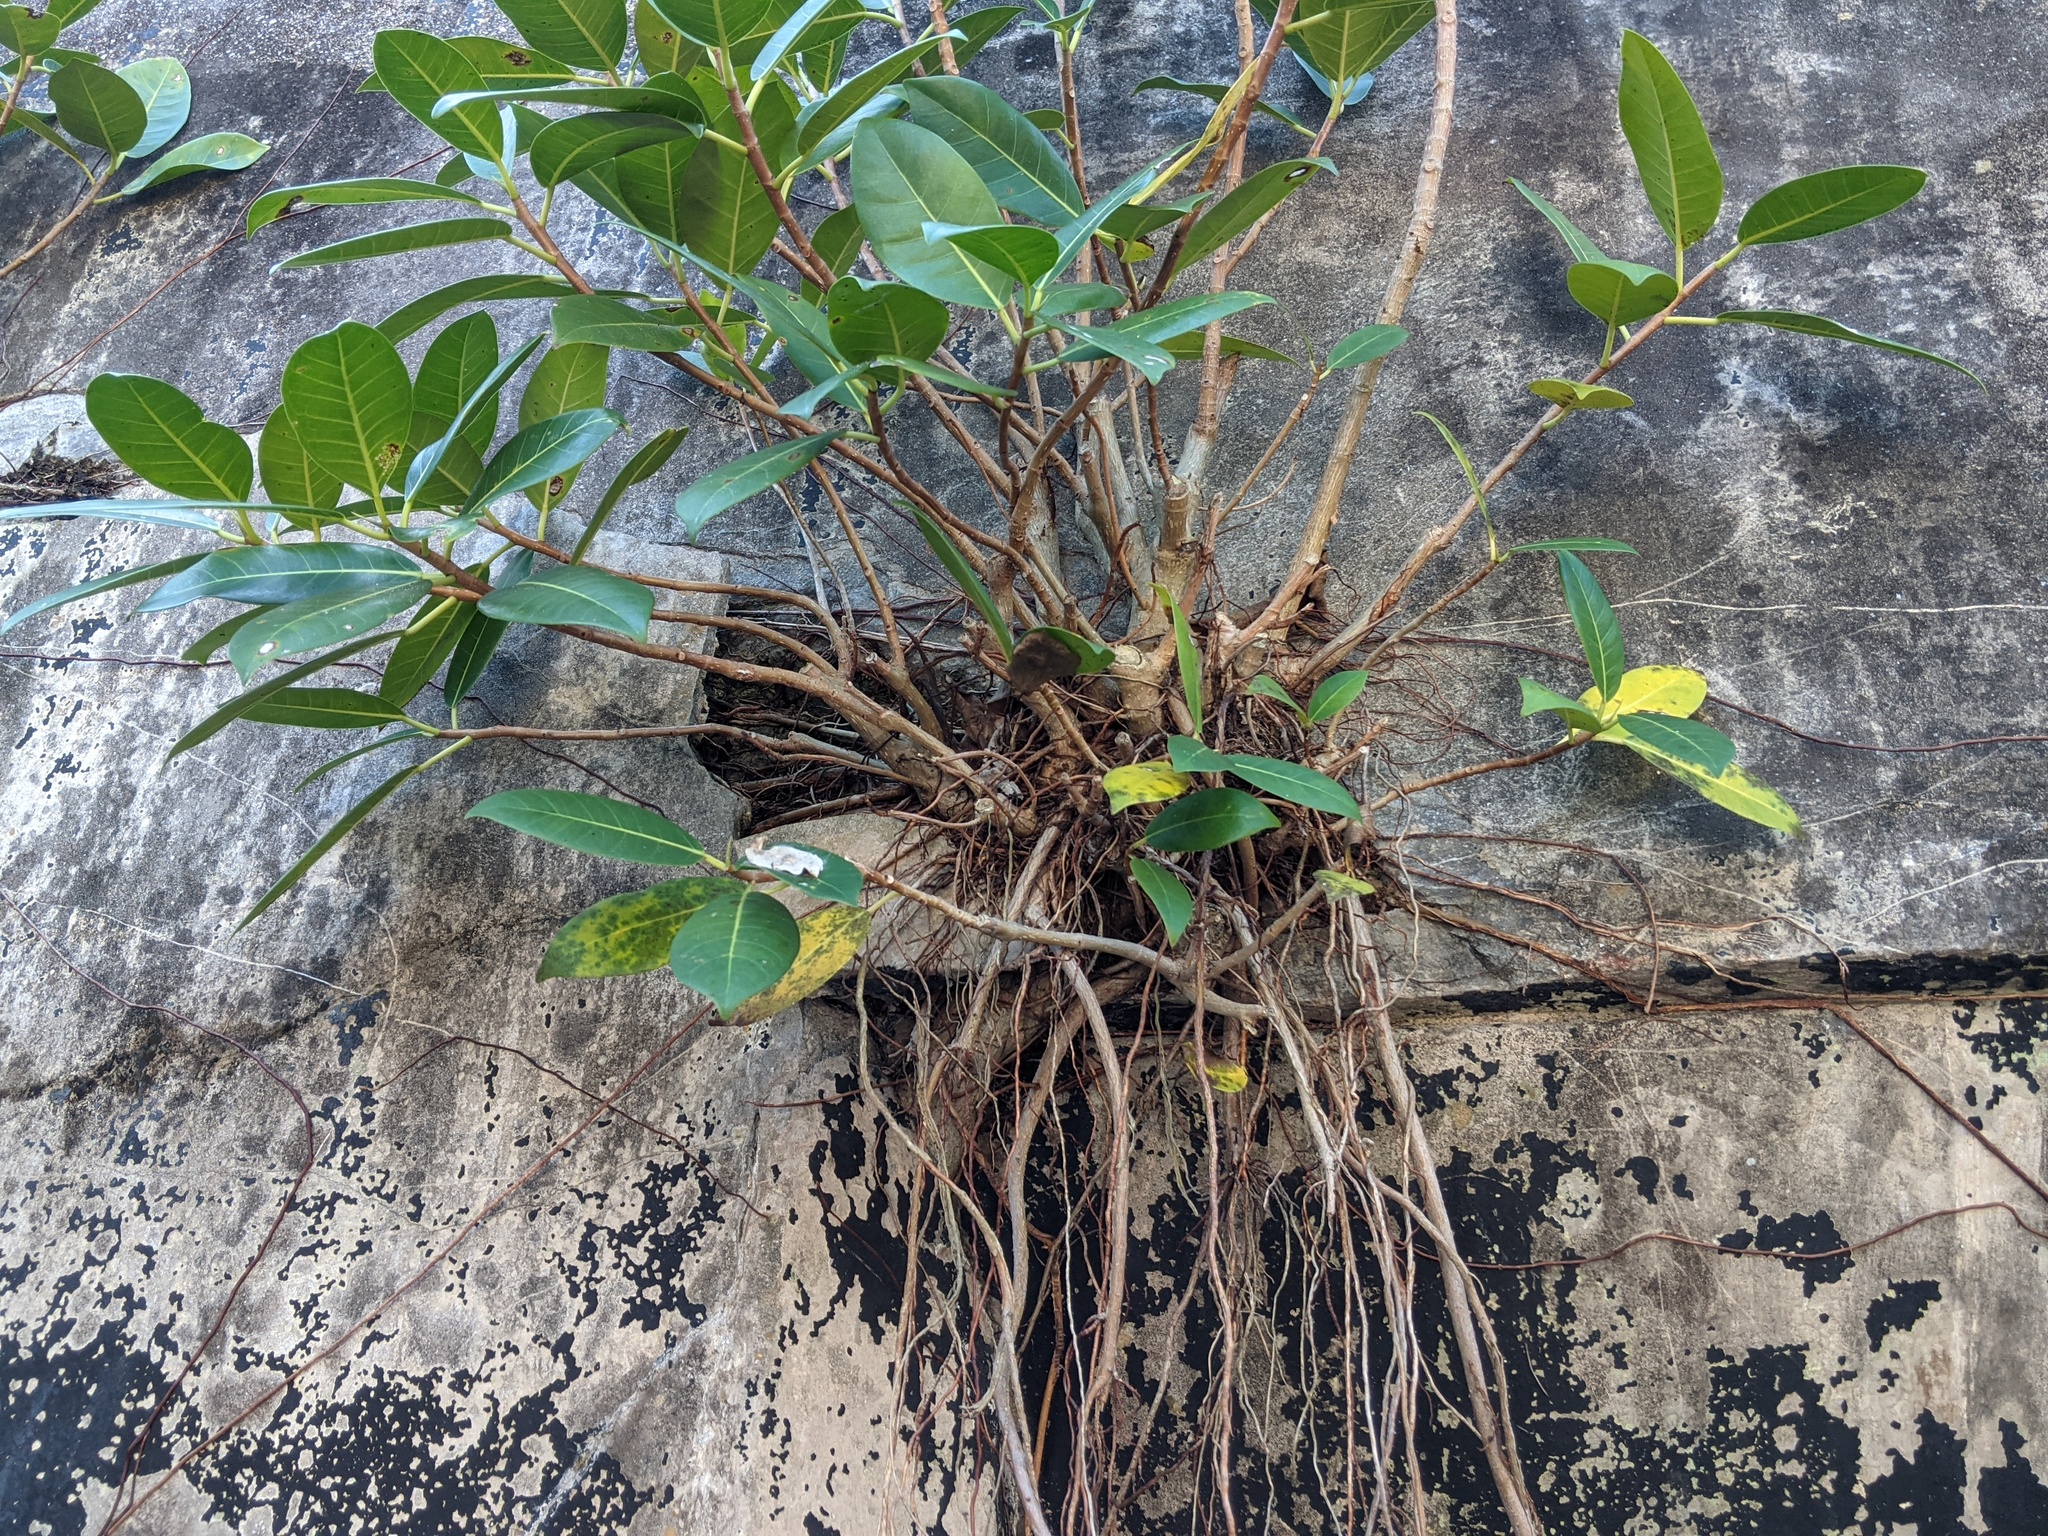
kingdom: Plantae
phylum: Tracheophyta
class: Magnoliopsida
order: Rosales
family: Moraceae
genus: Ficus
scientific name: Ficus aurea
